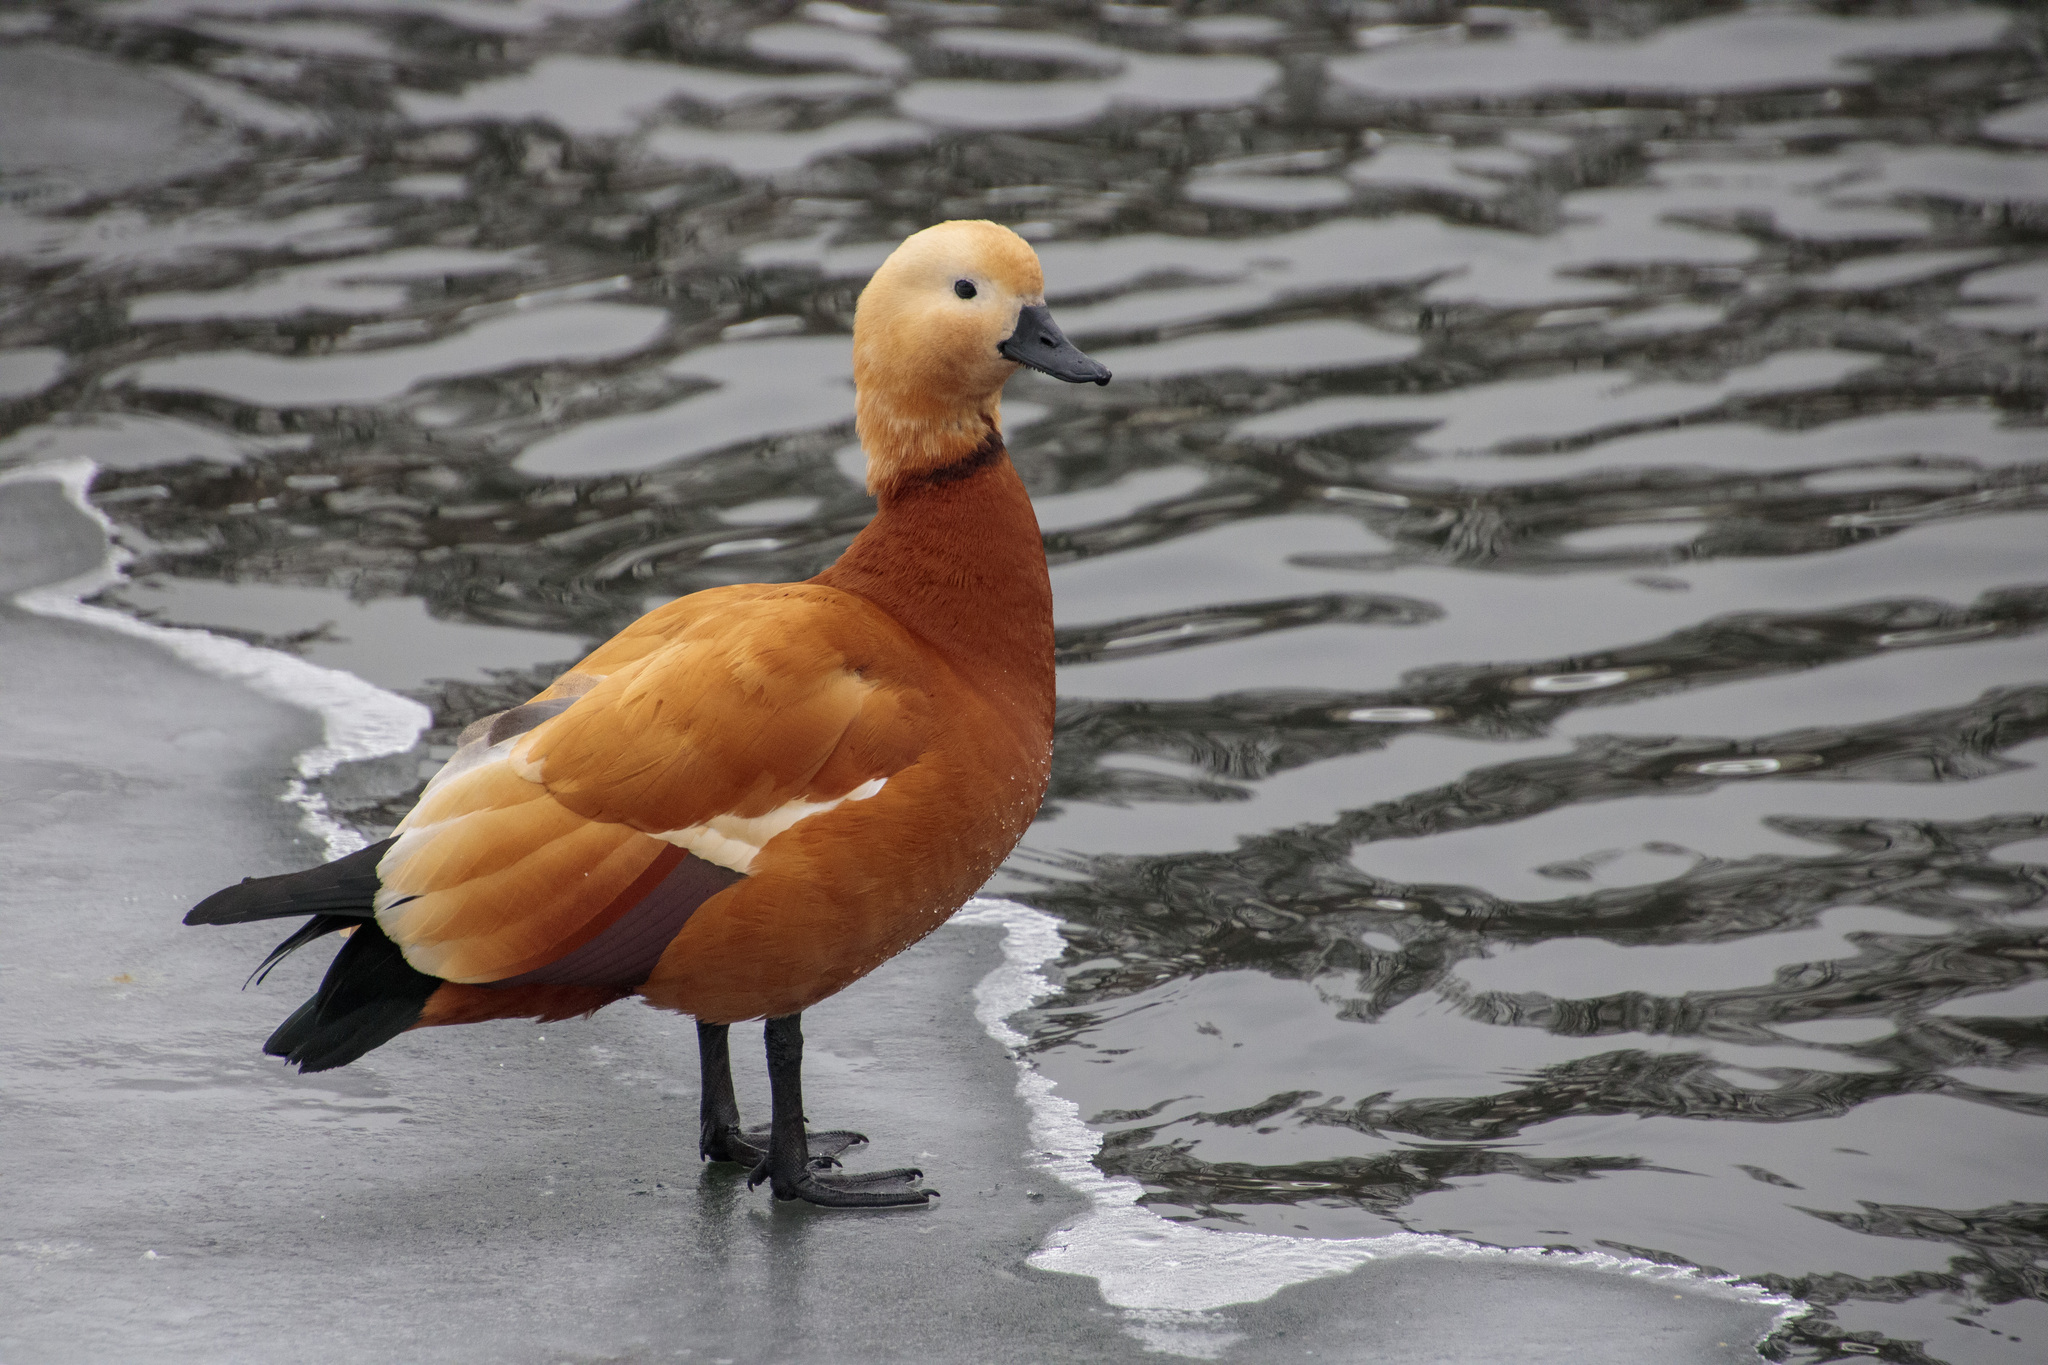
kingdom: Animalia
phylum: Chordata
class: Aves
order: Anseriformes
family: Anatidae
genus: Tadorna
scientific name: Tadorna ferruginea
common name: Ruddy shelduck
